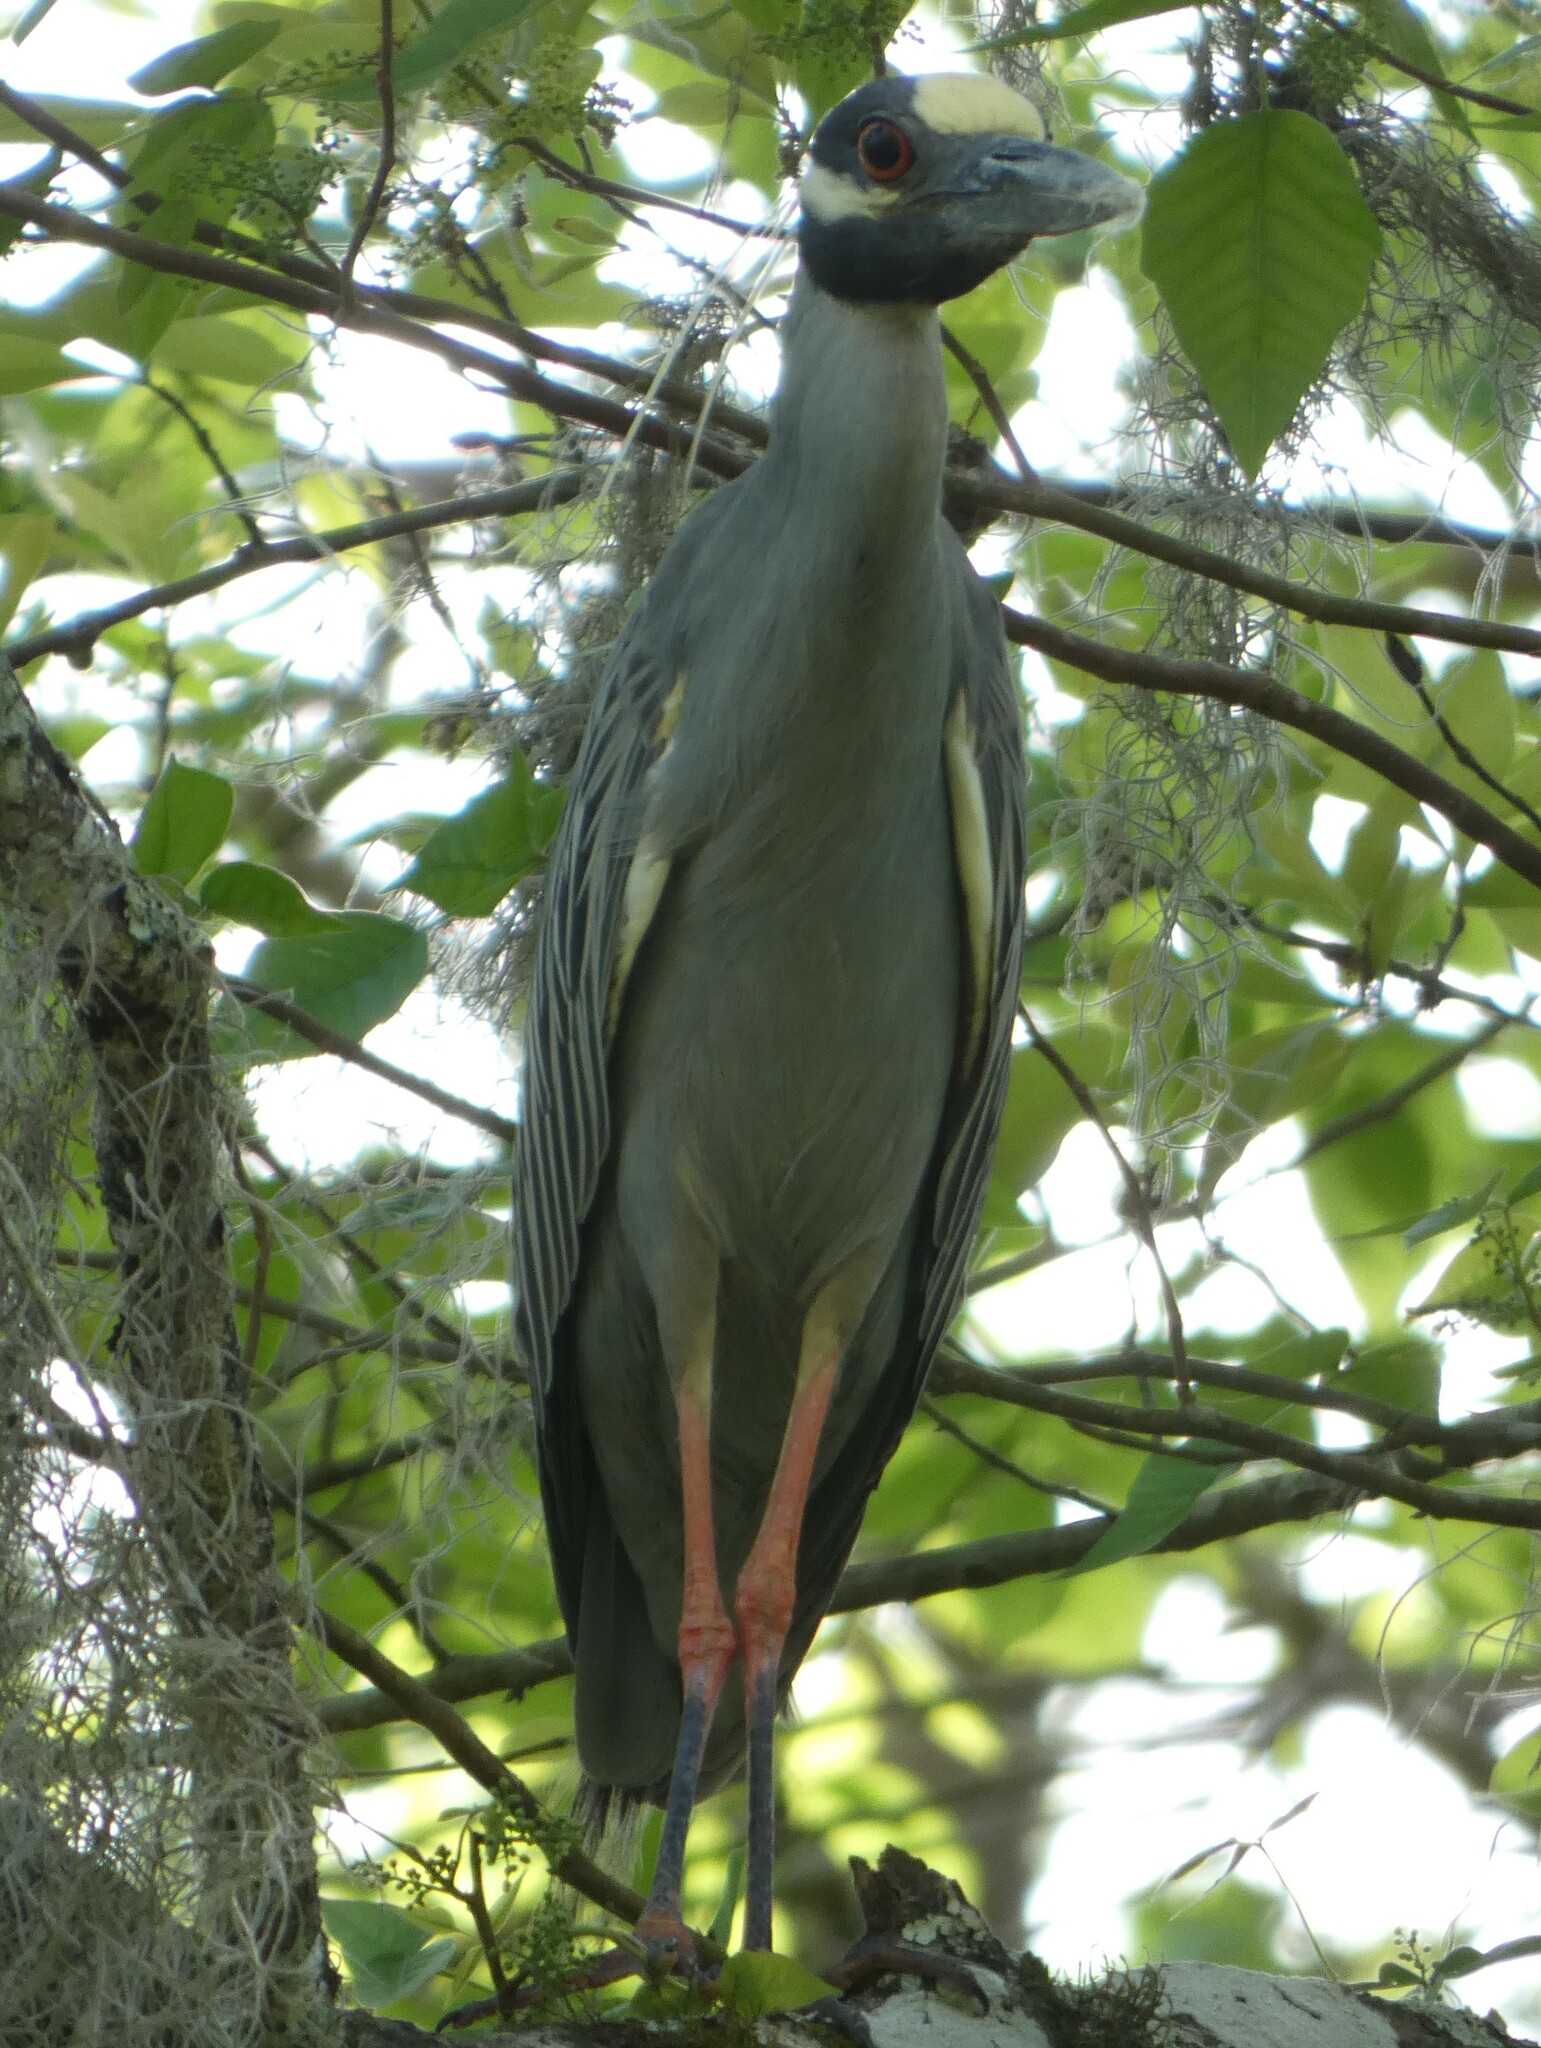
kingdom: Animalia
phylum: Chordata
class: Aves
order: Pelecaniformes
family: Ardeidae
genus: Nyctanassa
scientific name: Nyctanassa violacea
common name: Yellow-crowned night heron
